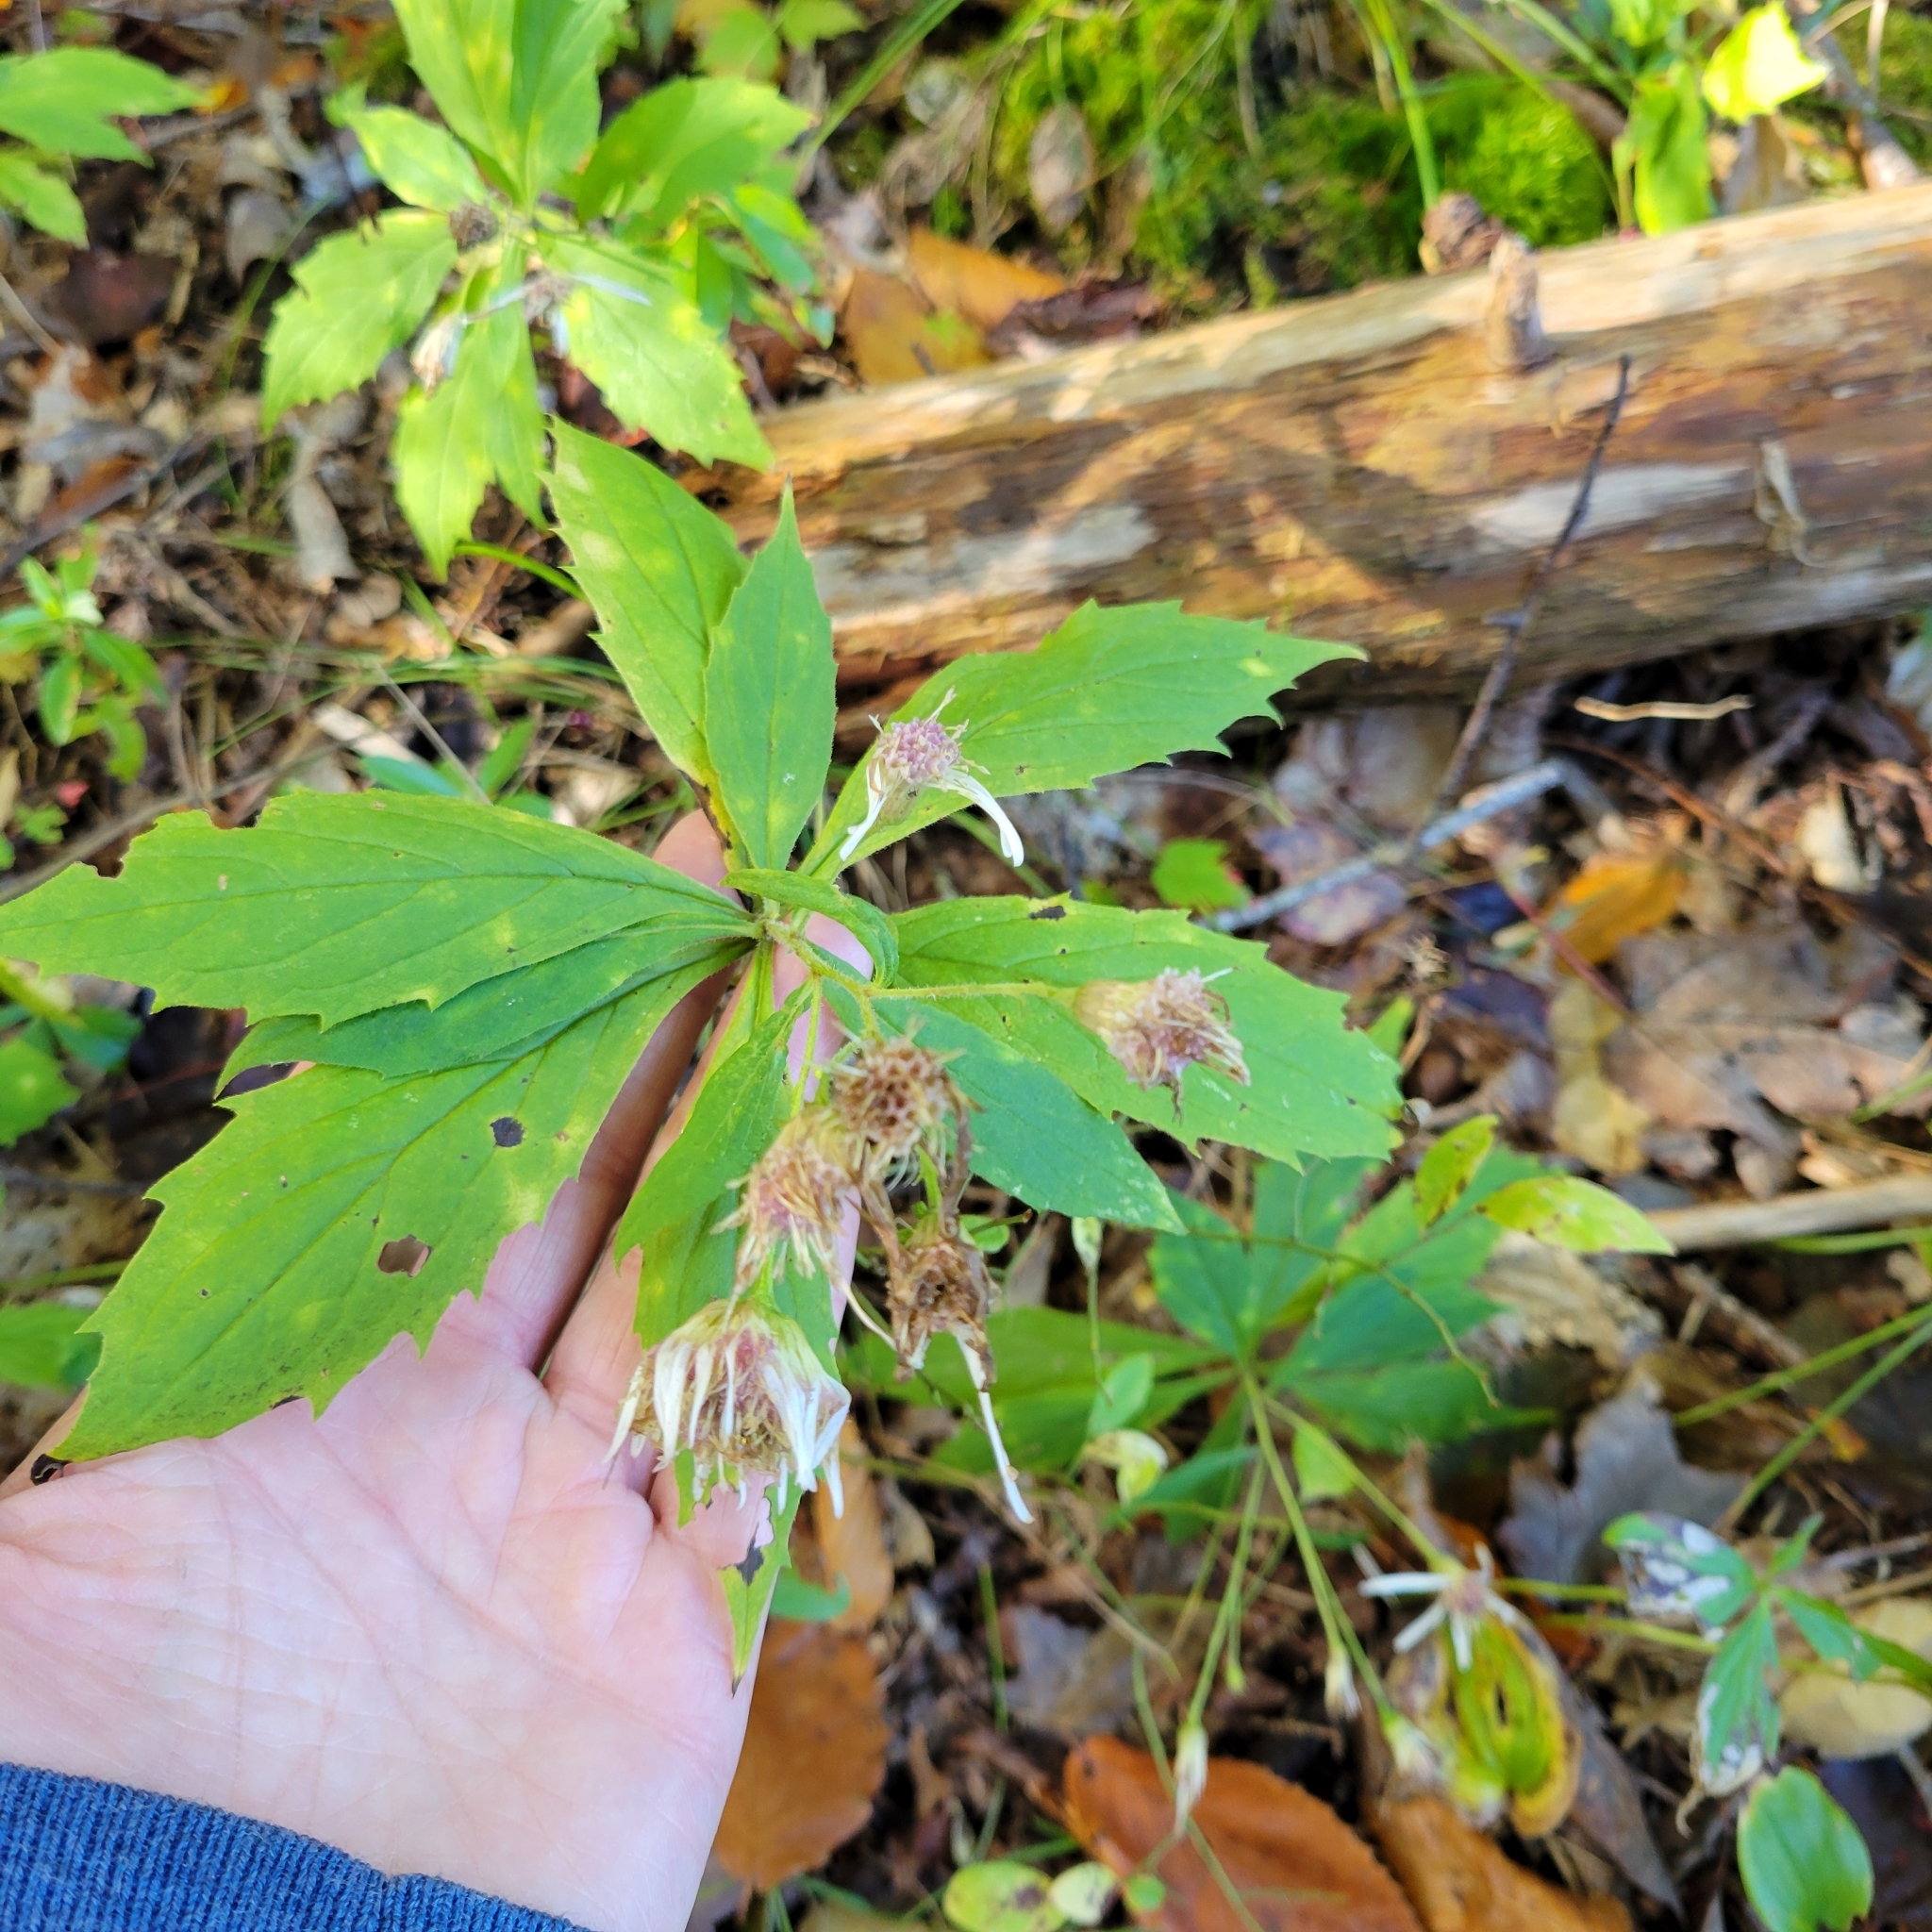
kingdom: Plantae
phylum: Tracheophyta
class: Magnoliopsida
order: Asterales
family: Asteraceae
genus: Oclemena
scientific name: Oclemena acuminata
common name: Mountain aster
